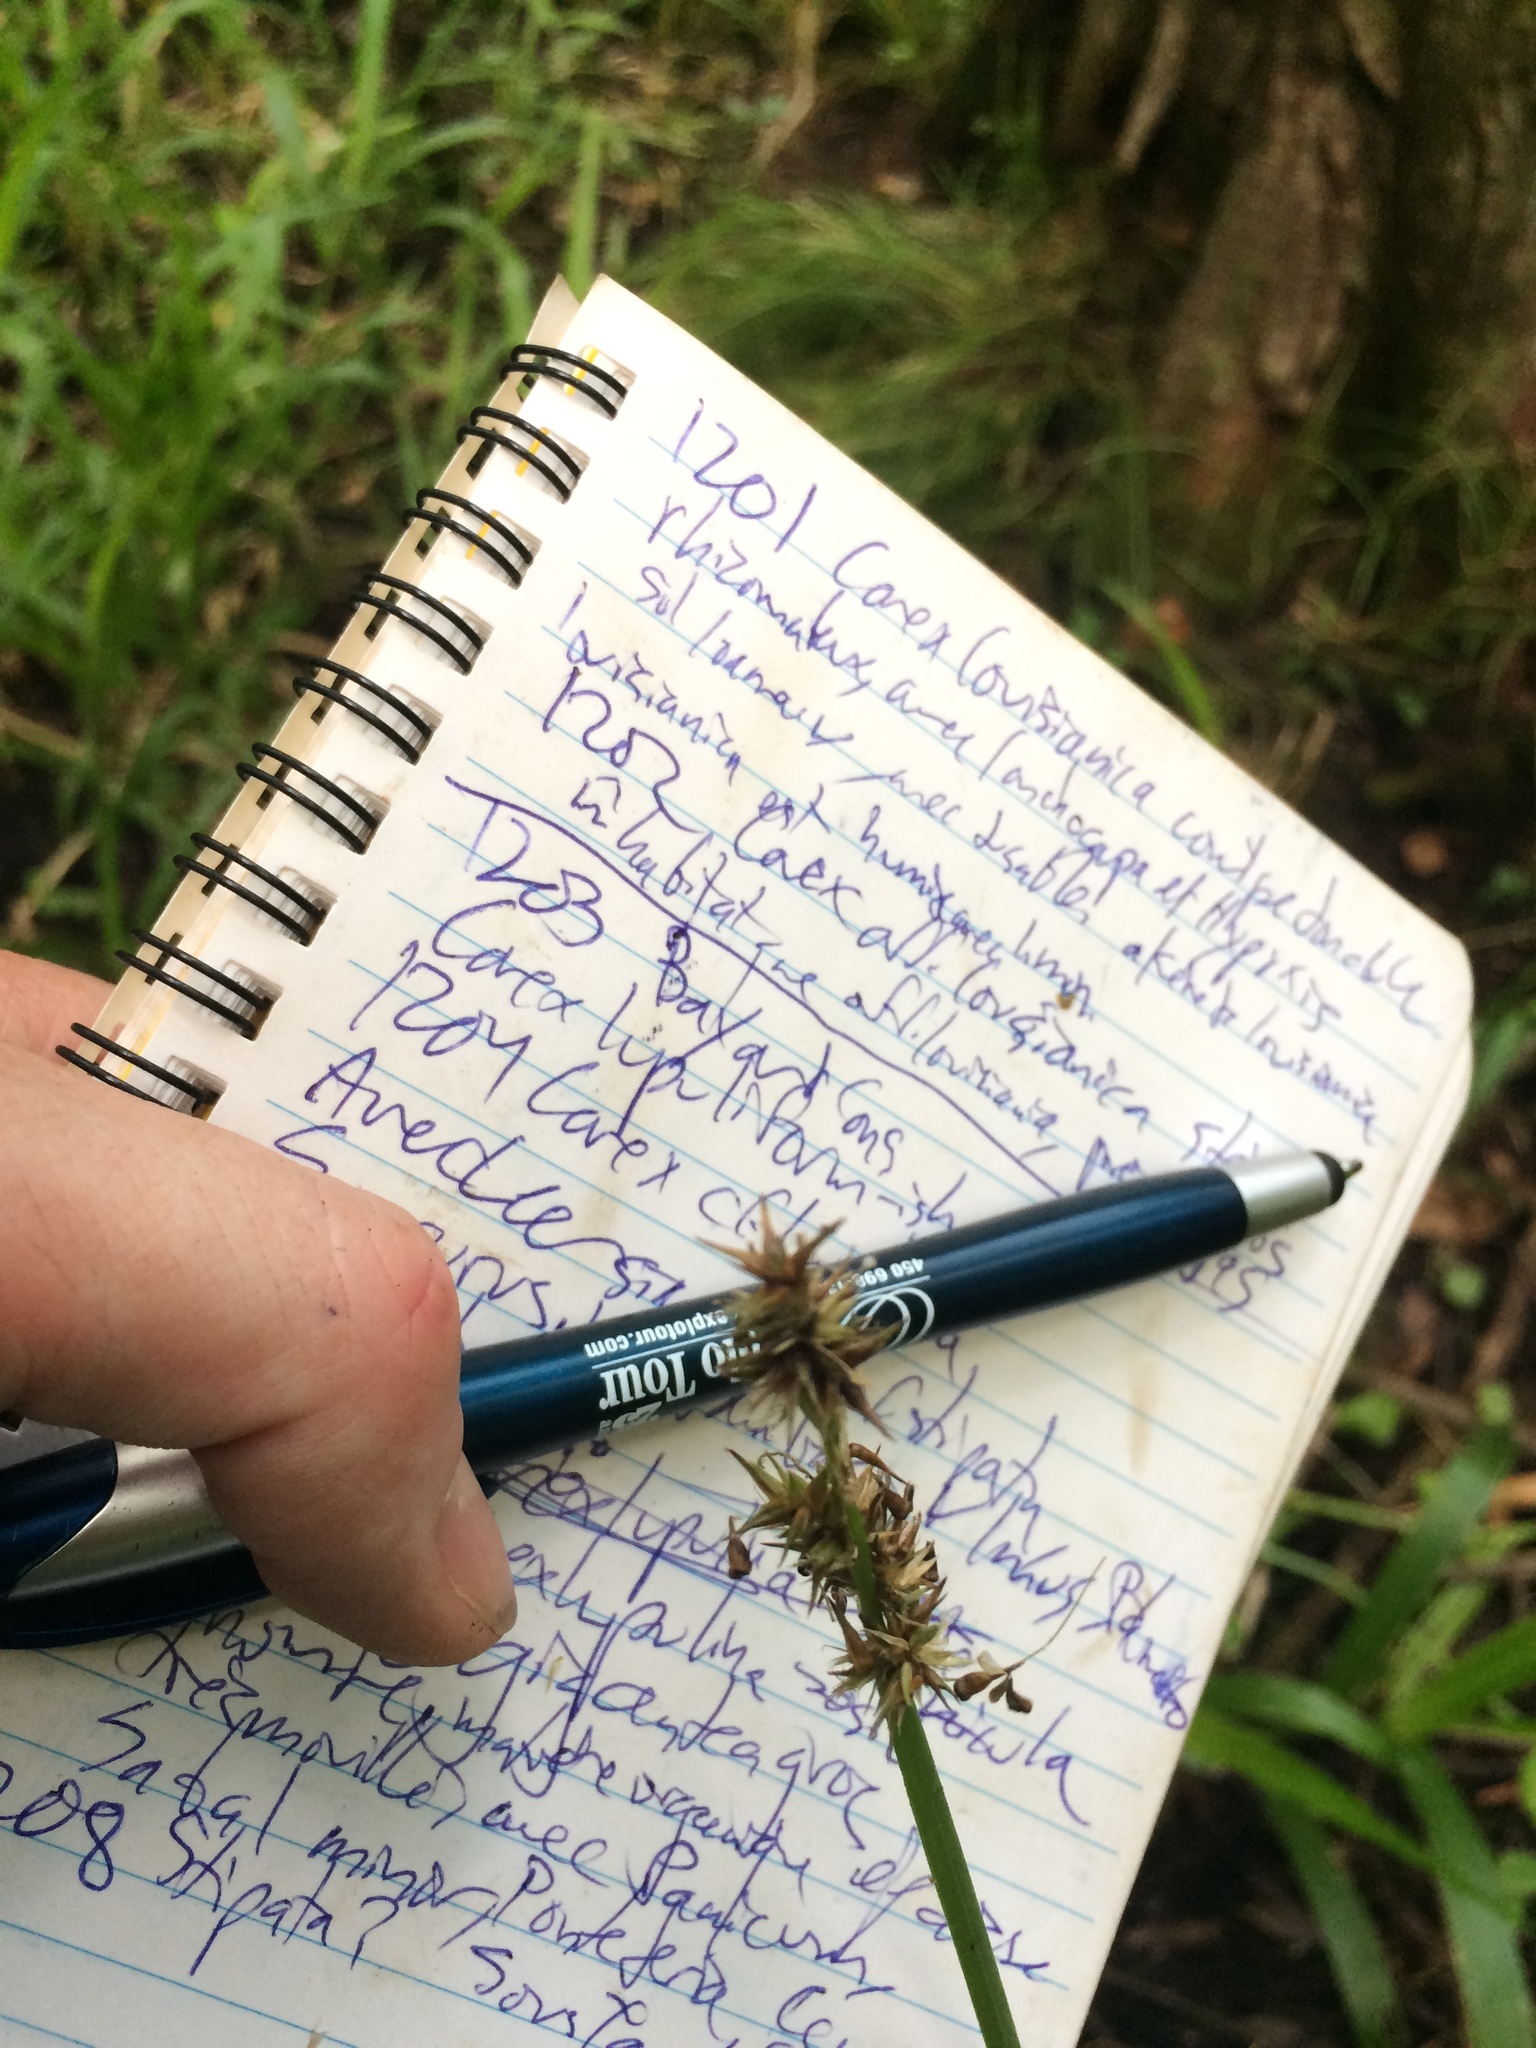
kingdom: Plantae
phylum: Tracheophyta
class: Liliopsida
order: Poales
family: Cyperaceae
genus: Carex
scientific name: Carex stipata
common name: Awl-fruited sedge
